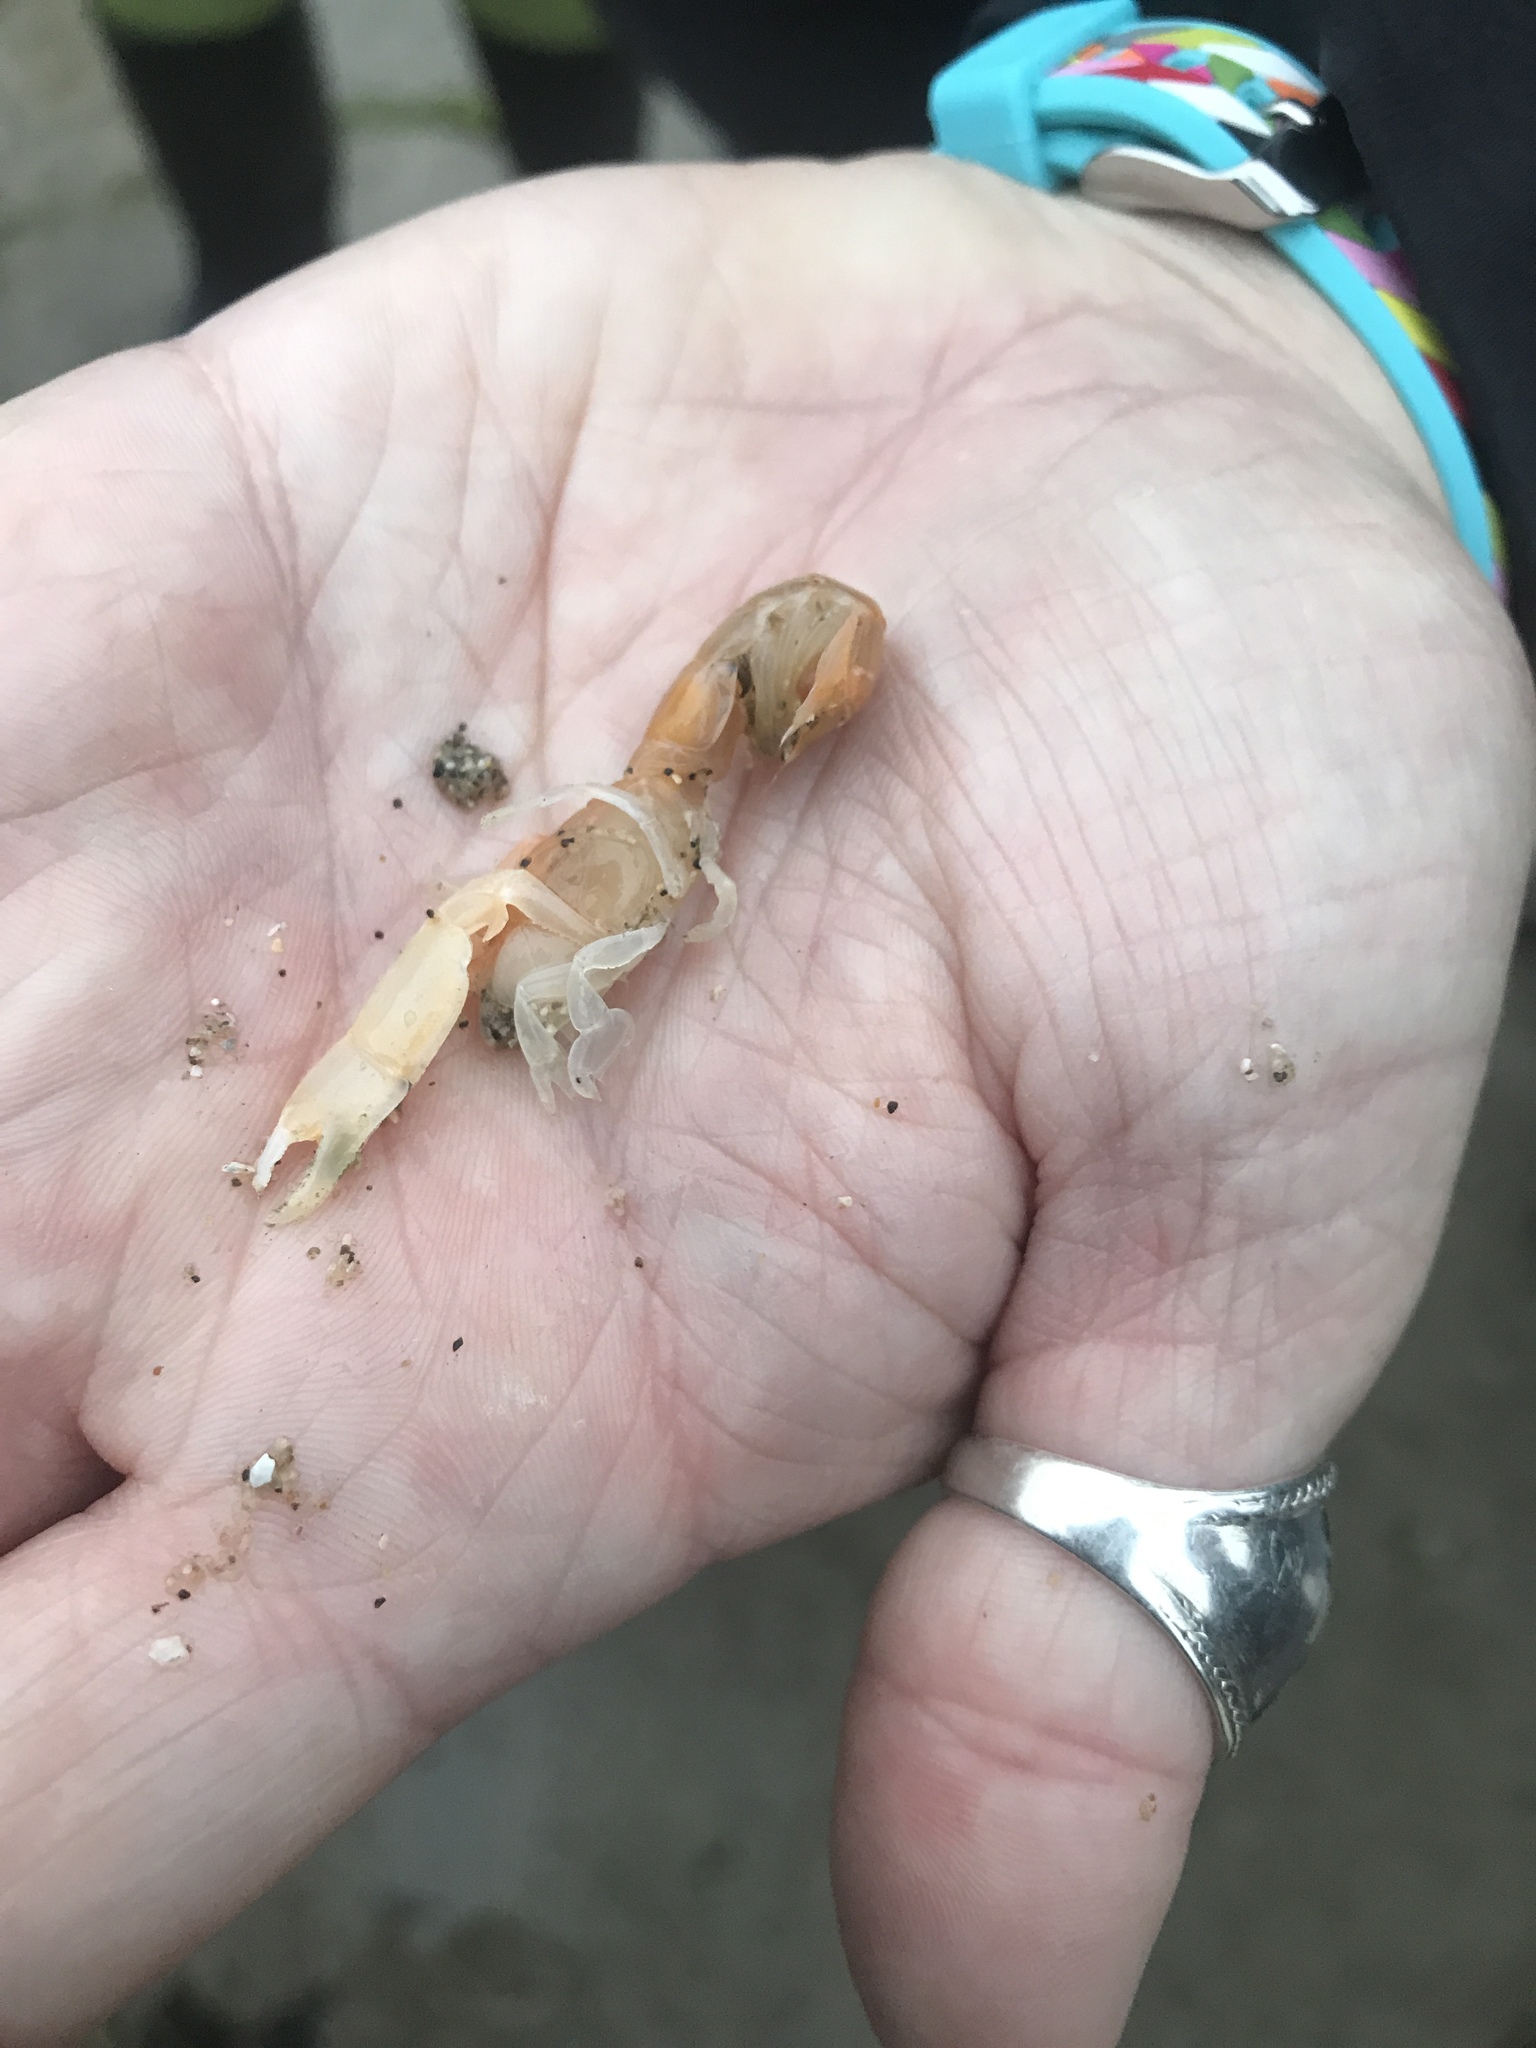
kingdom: Animalia
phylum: Arthropoda
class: Malacostraca
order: Decapoda
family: Callianassidae
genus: Neotrypaea
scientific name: Neotrypaea californiensis
